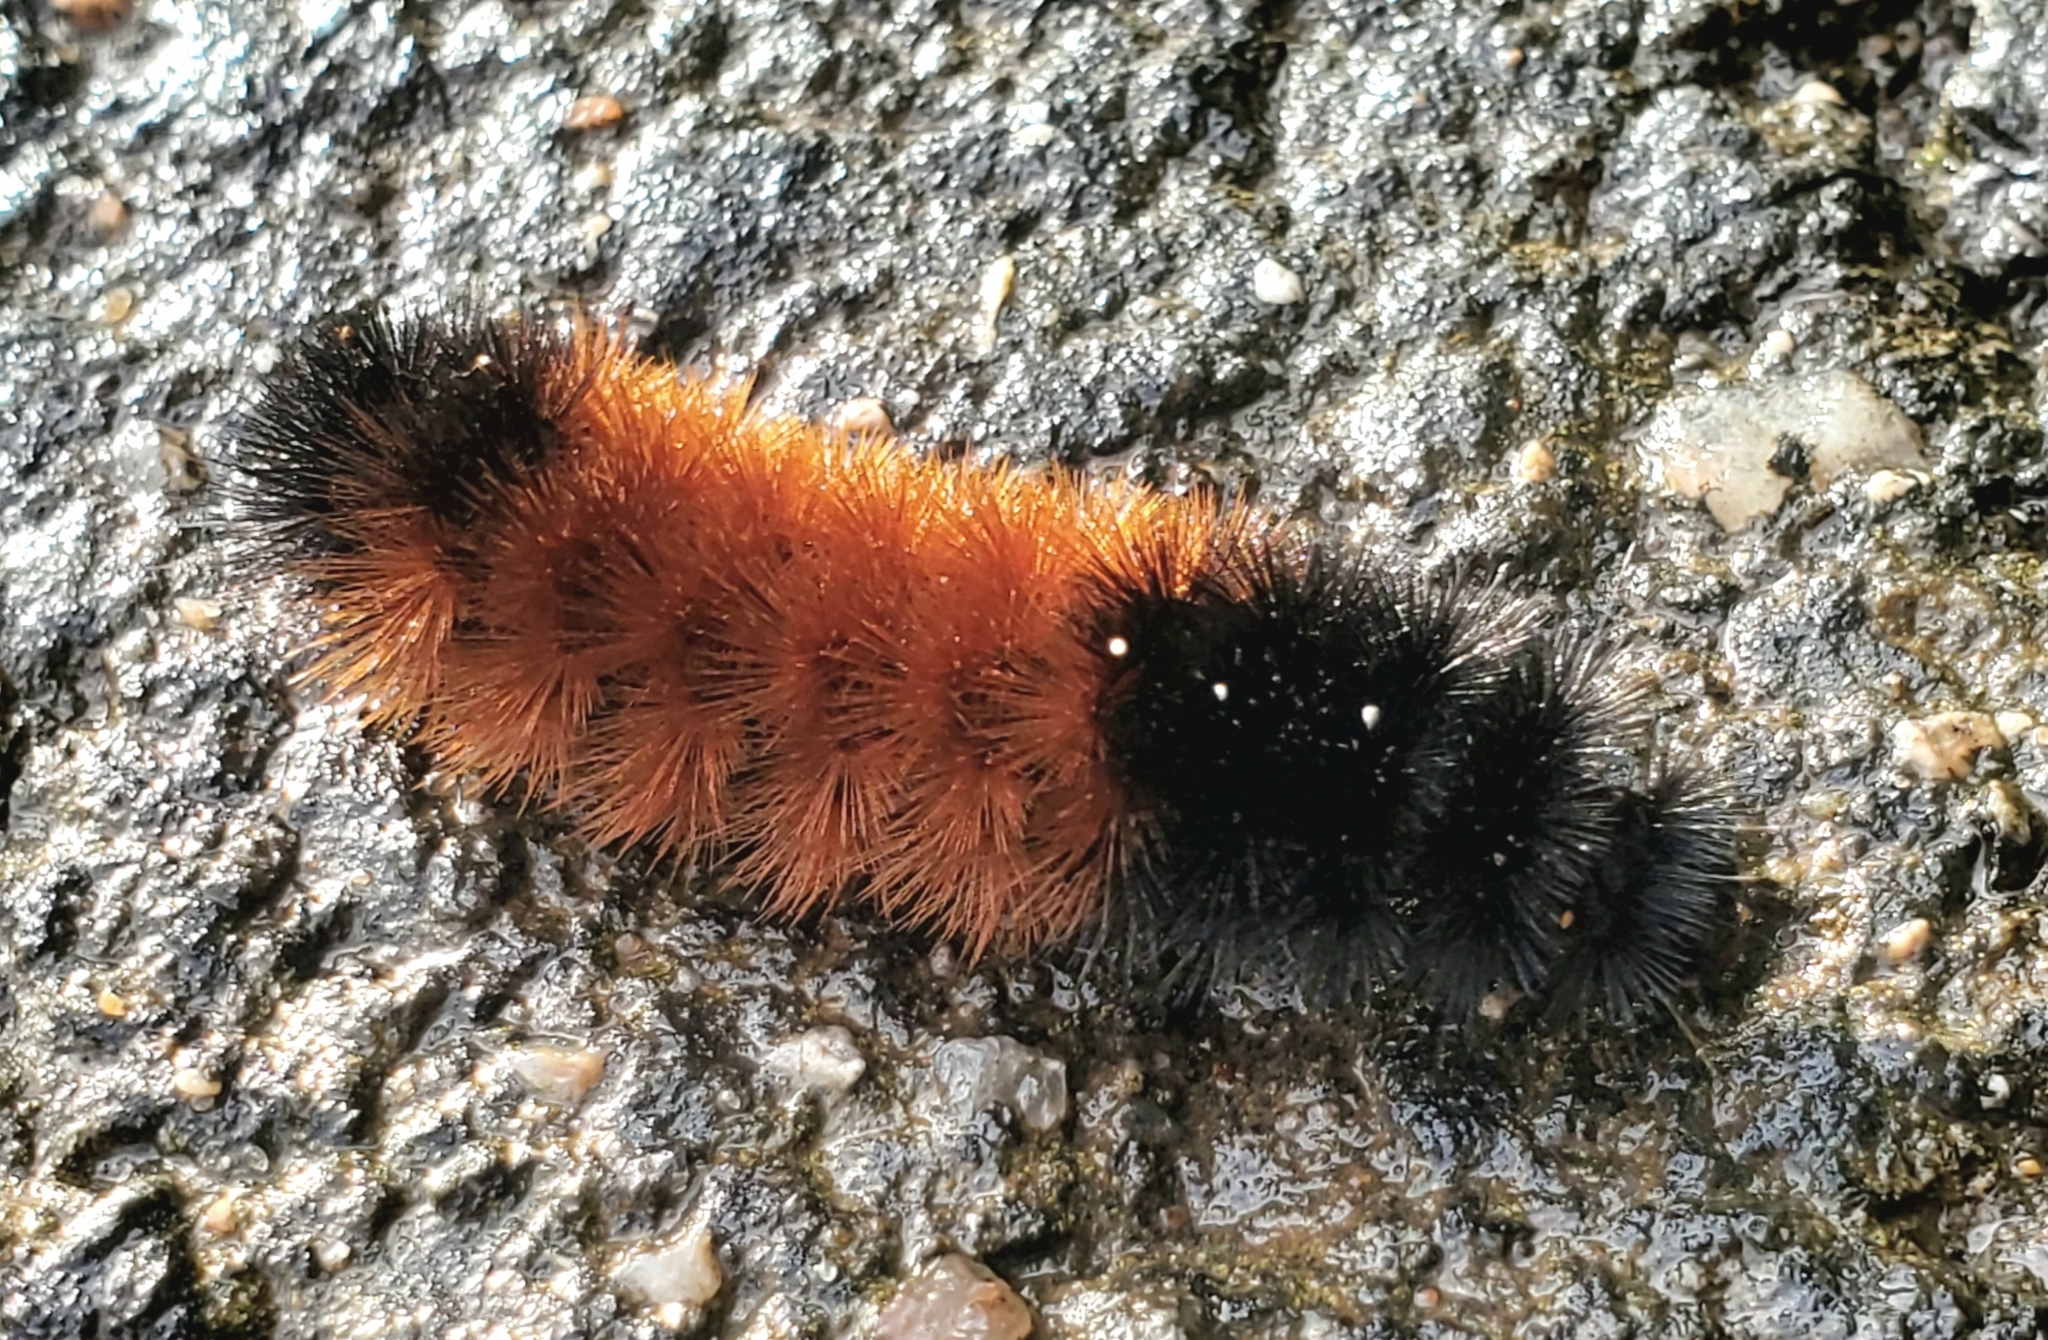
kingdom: Animalia
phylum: Arthropoda
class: Insecta
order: Lepidoptera
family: Erebidae
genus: Pyrrharctia
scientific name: Pyrrharctia isabella
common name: Isabella tiger moth
